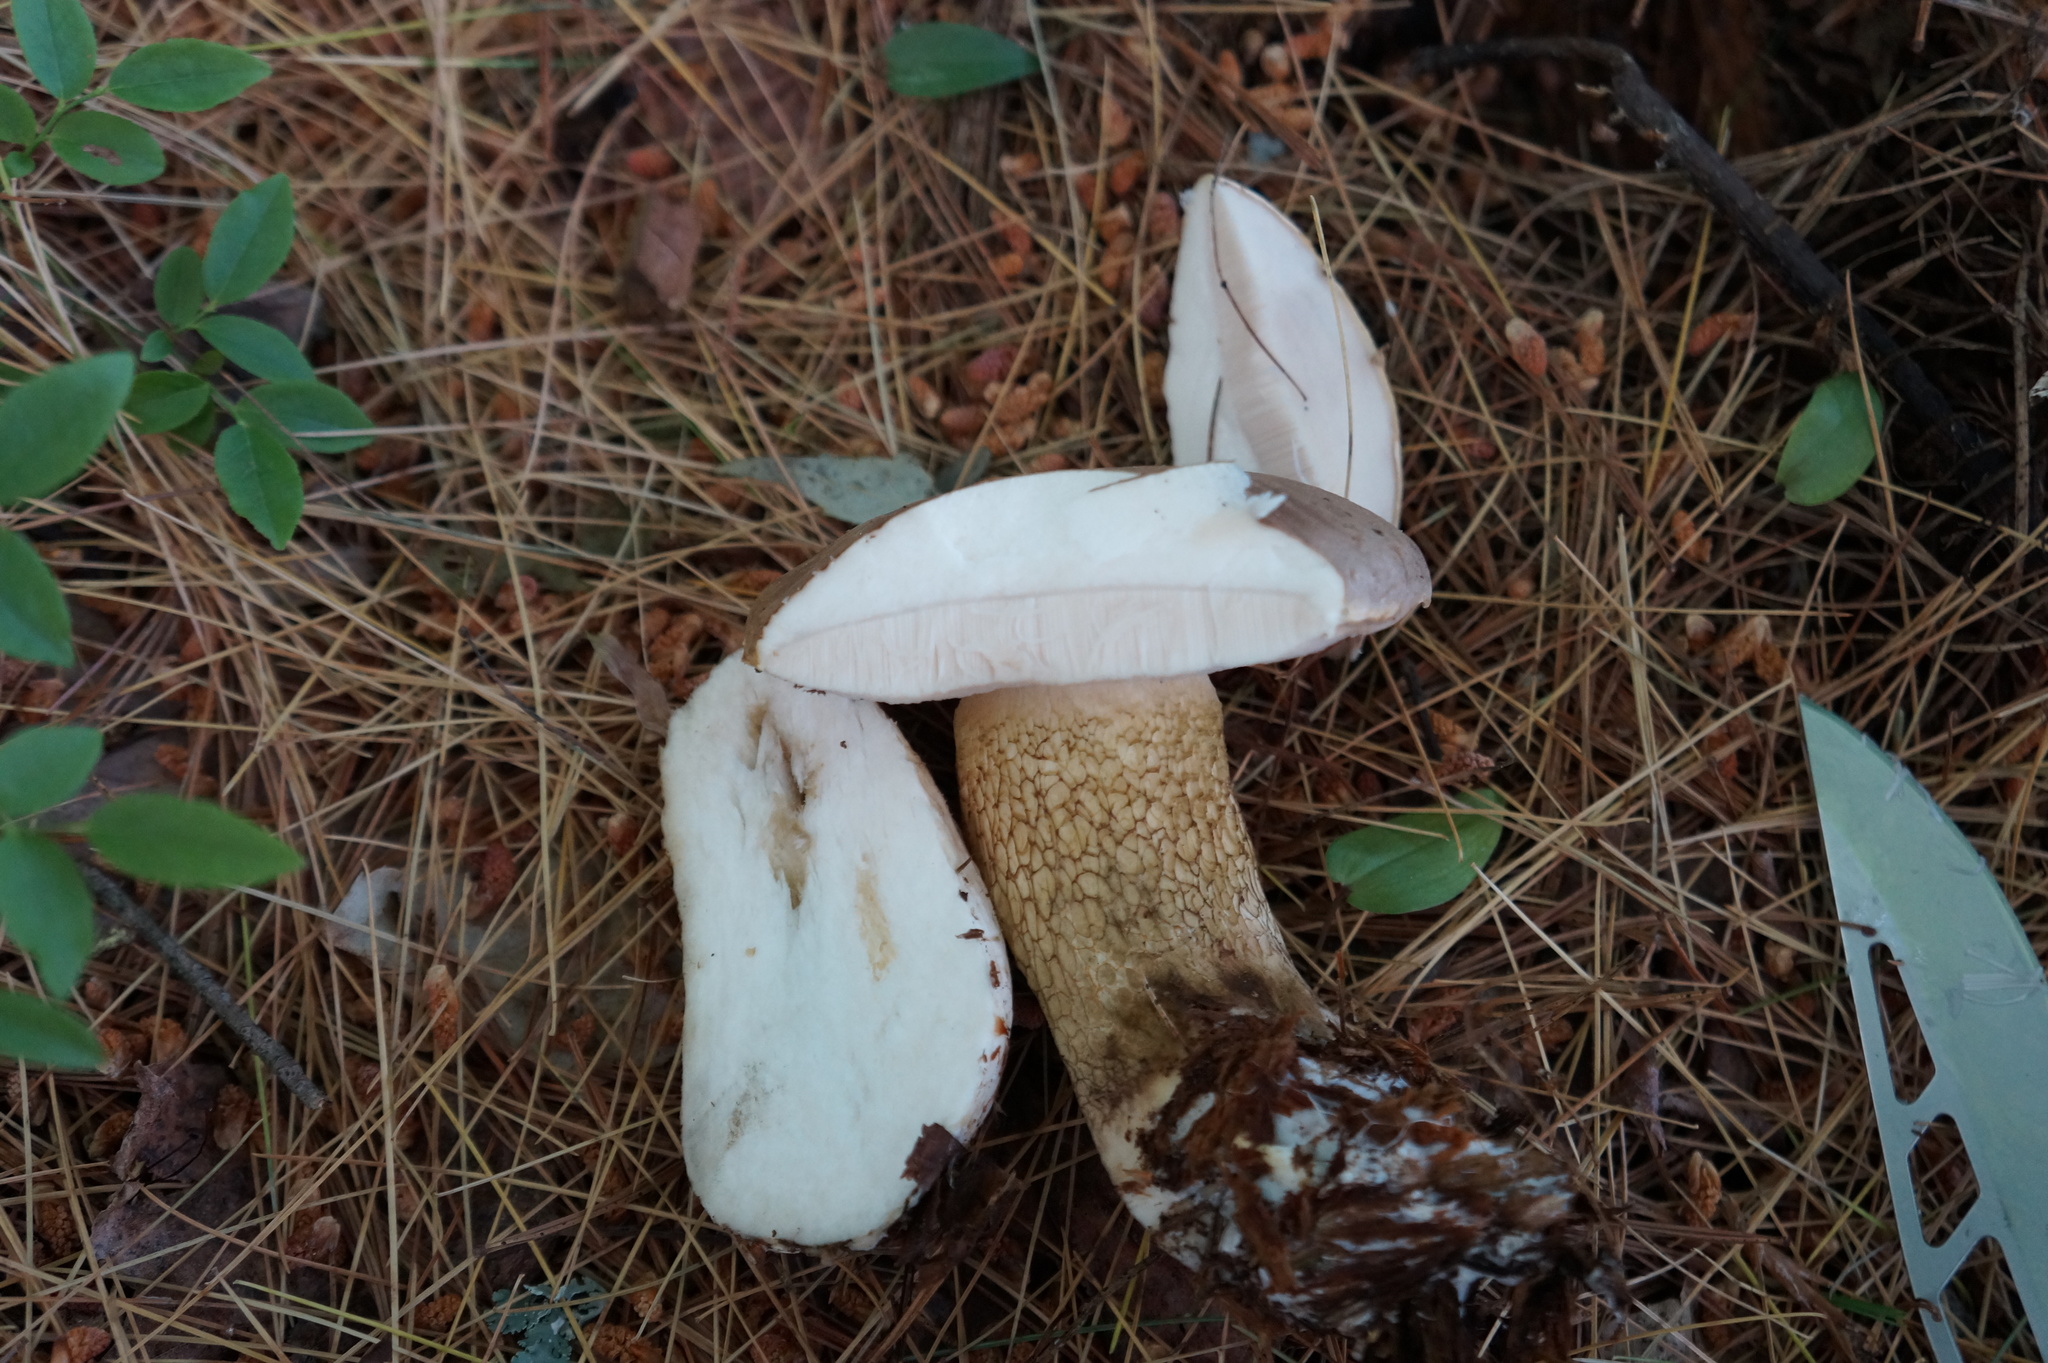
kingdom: Fungi
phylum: Basidiomycota
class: Agaricomycetes
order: Boletales
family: Boletaceae
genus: Tylopilus
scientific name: Tylopilus felleus
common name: Bitter bolete
